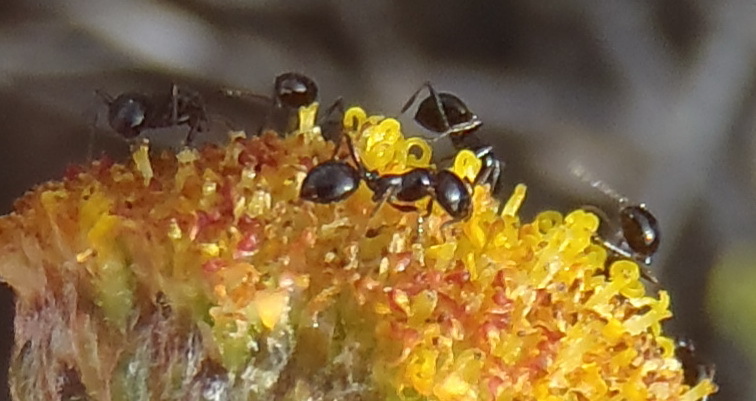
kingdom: Animalia
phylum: Arthropoda
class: Insecta
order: Hymenoptera
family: Formicidae
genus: Monomorium
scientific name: Monomorium fridae
